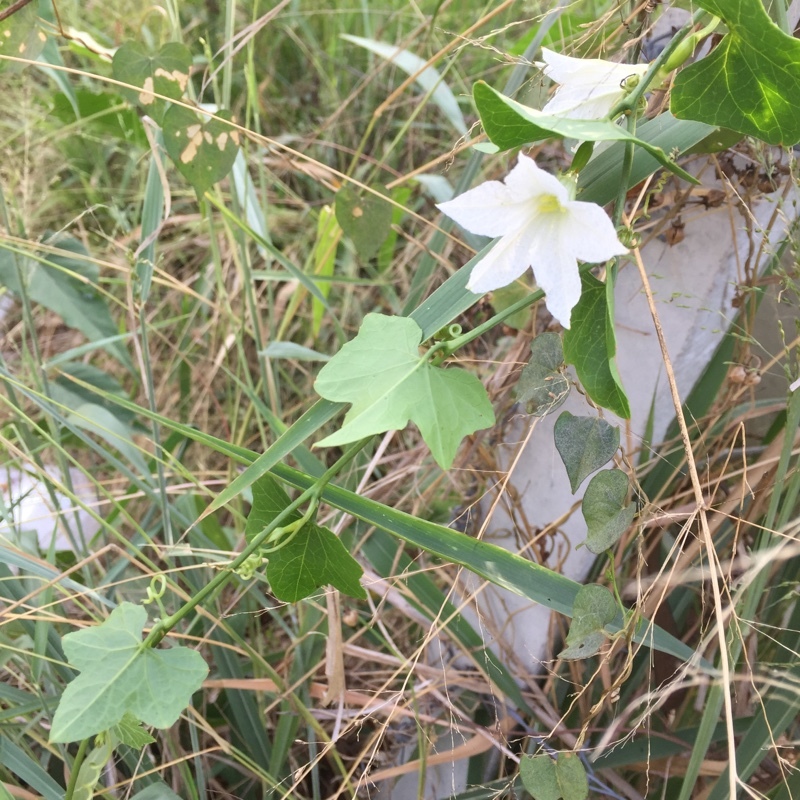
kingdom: Plantae
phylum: Tracheophyta
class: Magnoliopsida
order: Cucurbitales
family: Cucurbitaceae
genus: Coccinia
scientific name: Coccinia grandis
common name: Ivy gourd
